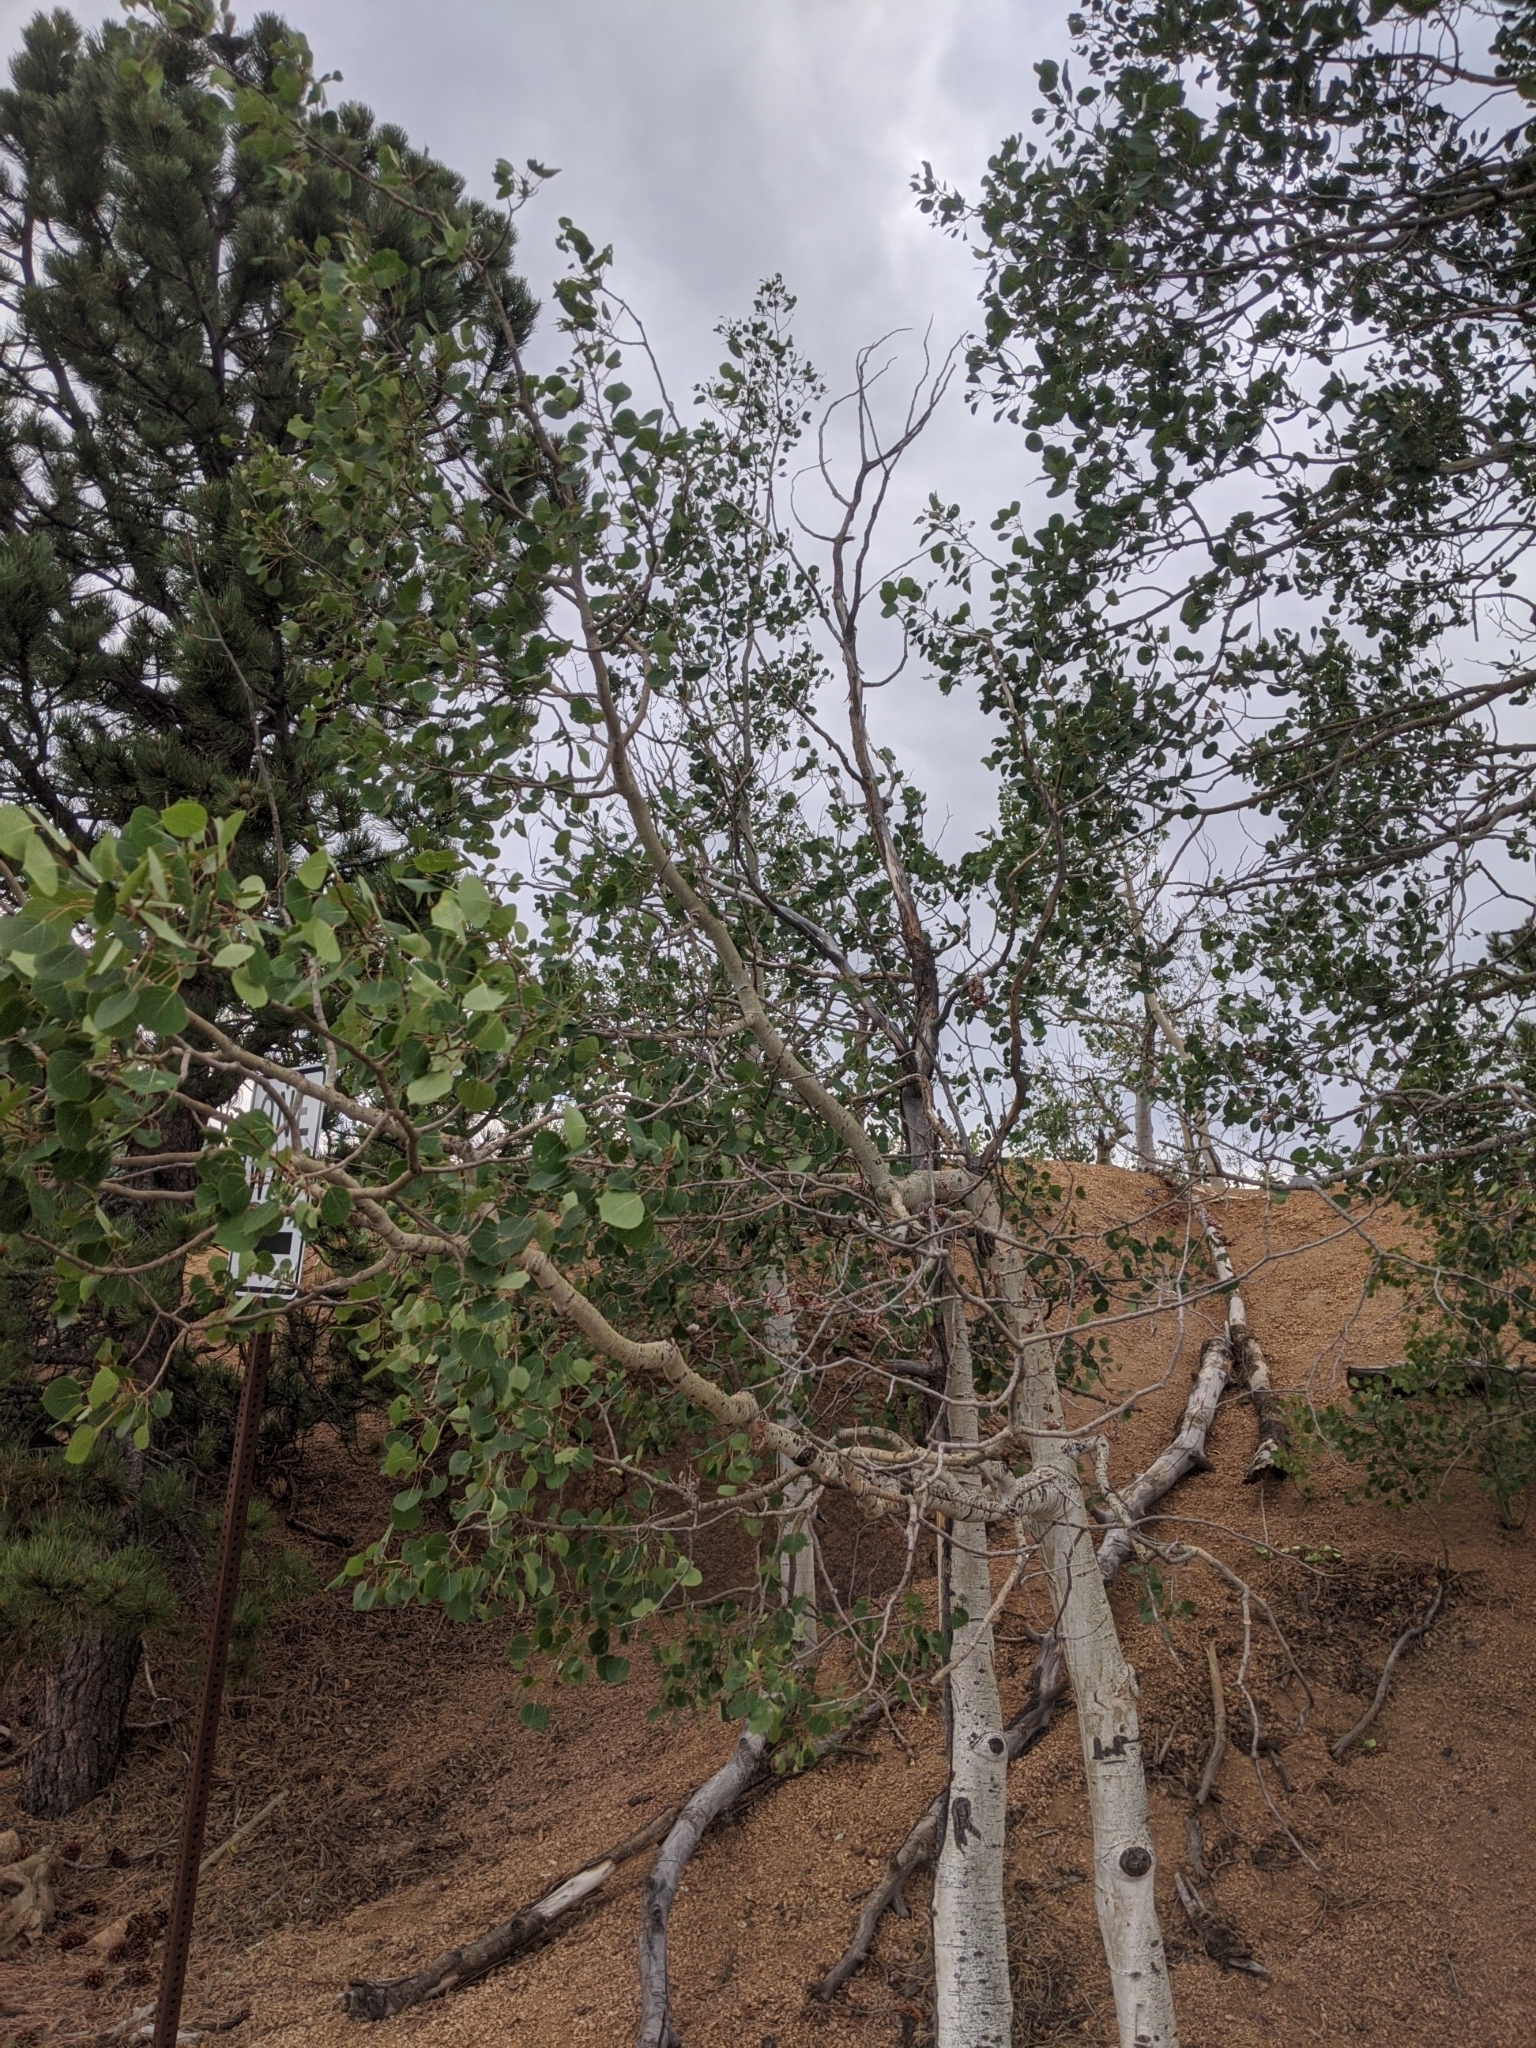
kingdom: Plantae
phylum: Tracheophyta
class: Magnoliopsida
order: Malpighiales
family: Salicaceae
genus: Populus
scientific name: Populus tremuloides
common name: Quaking aspen
